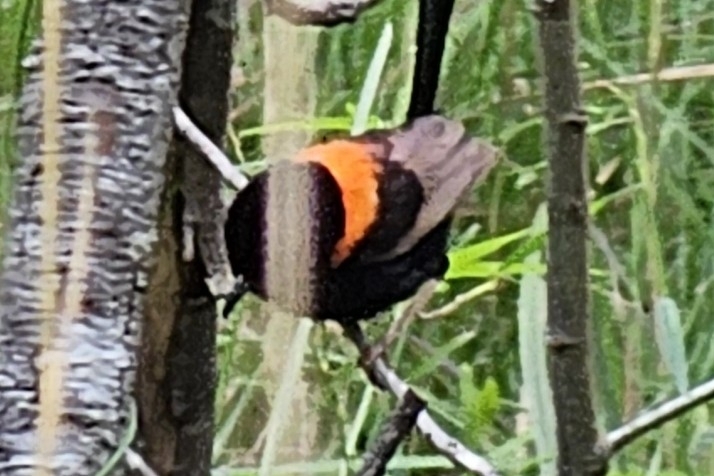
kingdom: Animalia
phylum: Chordata
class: Aves
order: Passeriformes
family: Maluridae
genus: Malurus
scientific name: Malurus melanocephalus
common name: Red-backed fairywren
